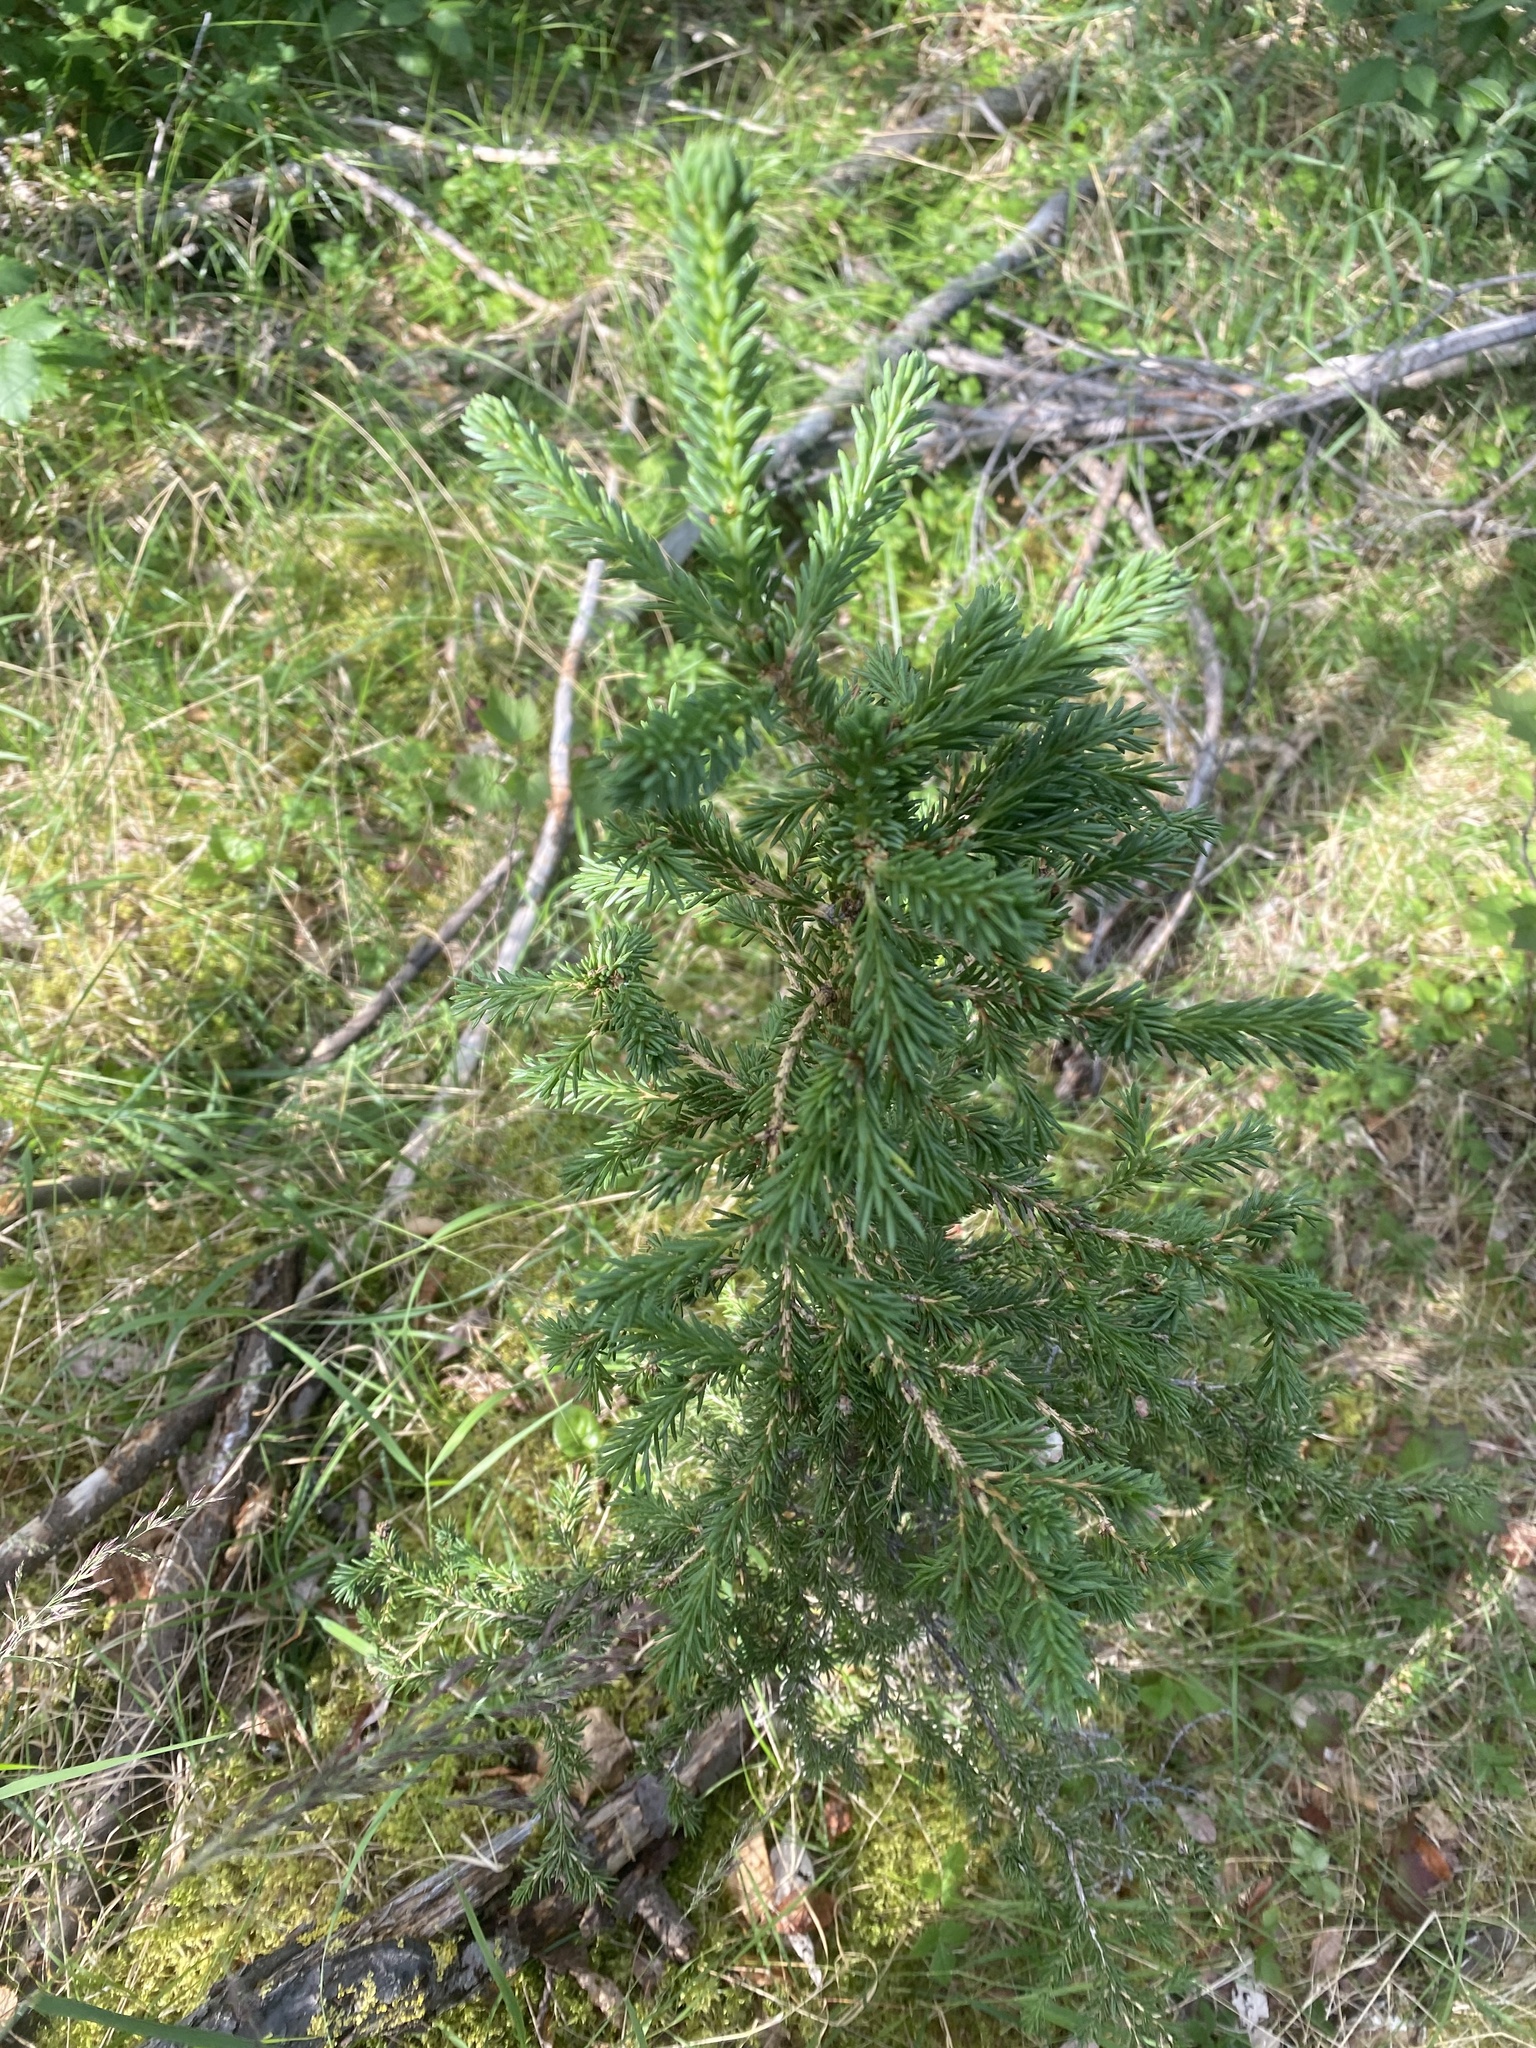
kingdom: Plantae
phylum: Tracheophyta
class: Pinopsida
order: Pinales
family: Pinaceae
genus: Picea
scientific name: Picea obovata
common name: Siberian spruce
